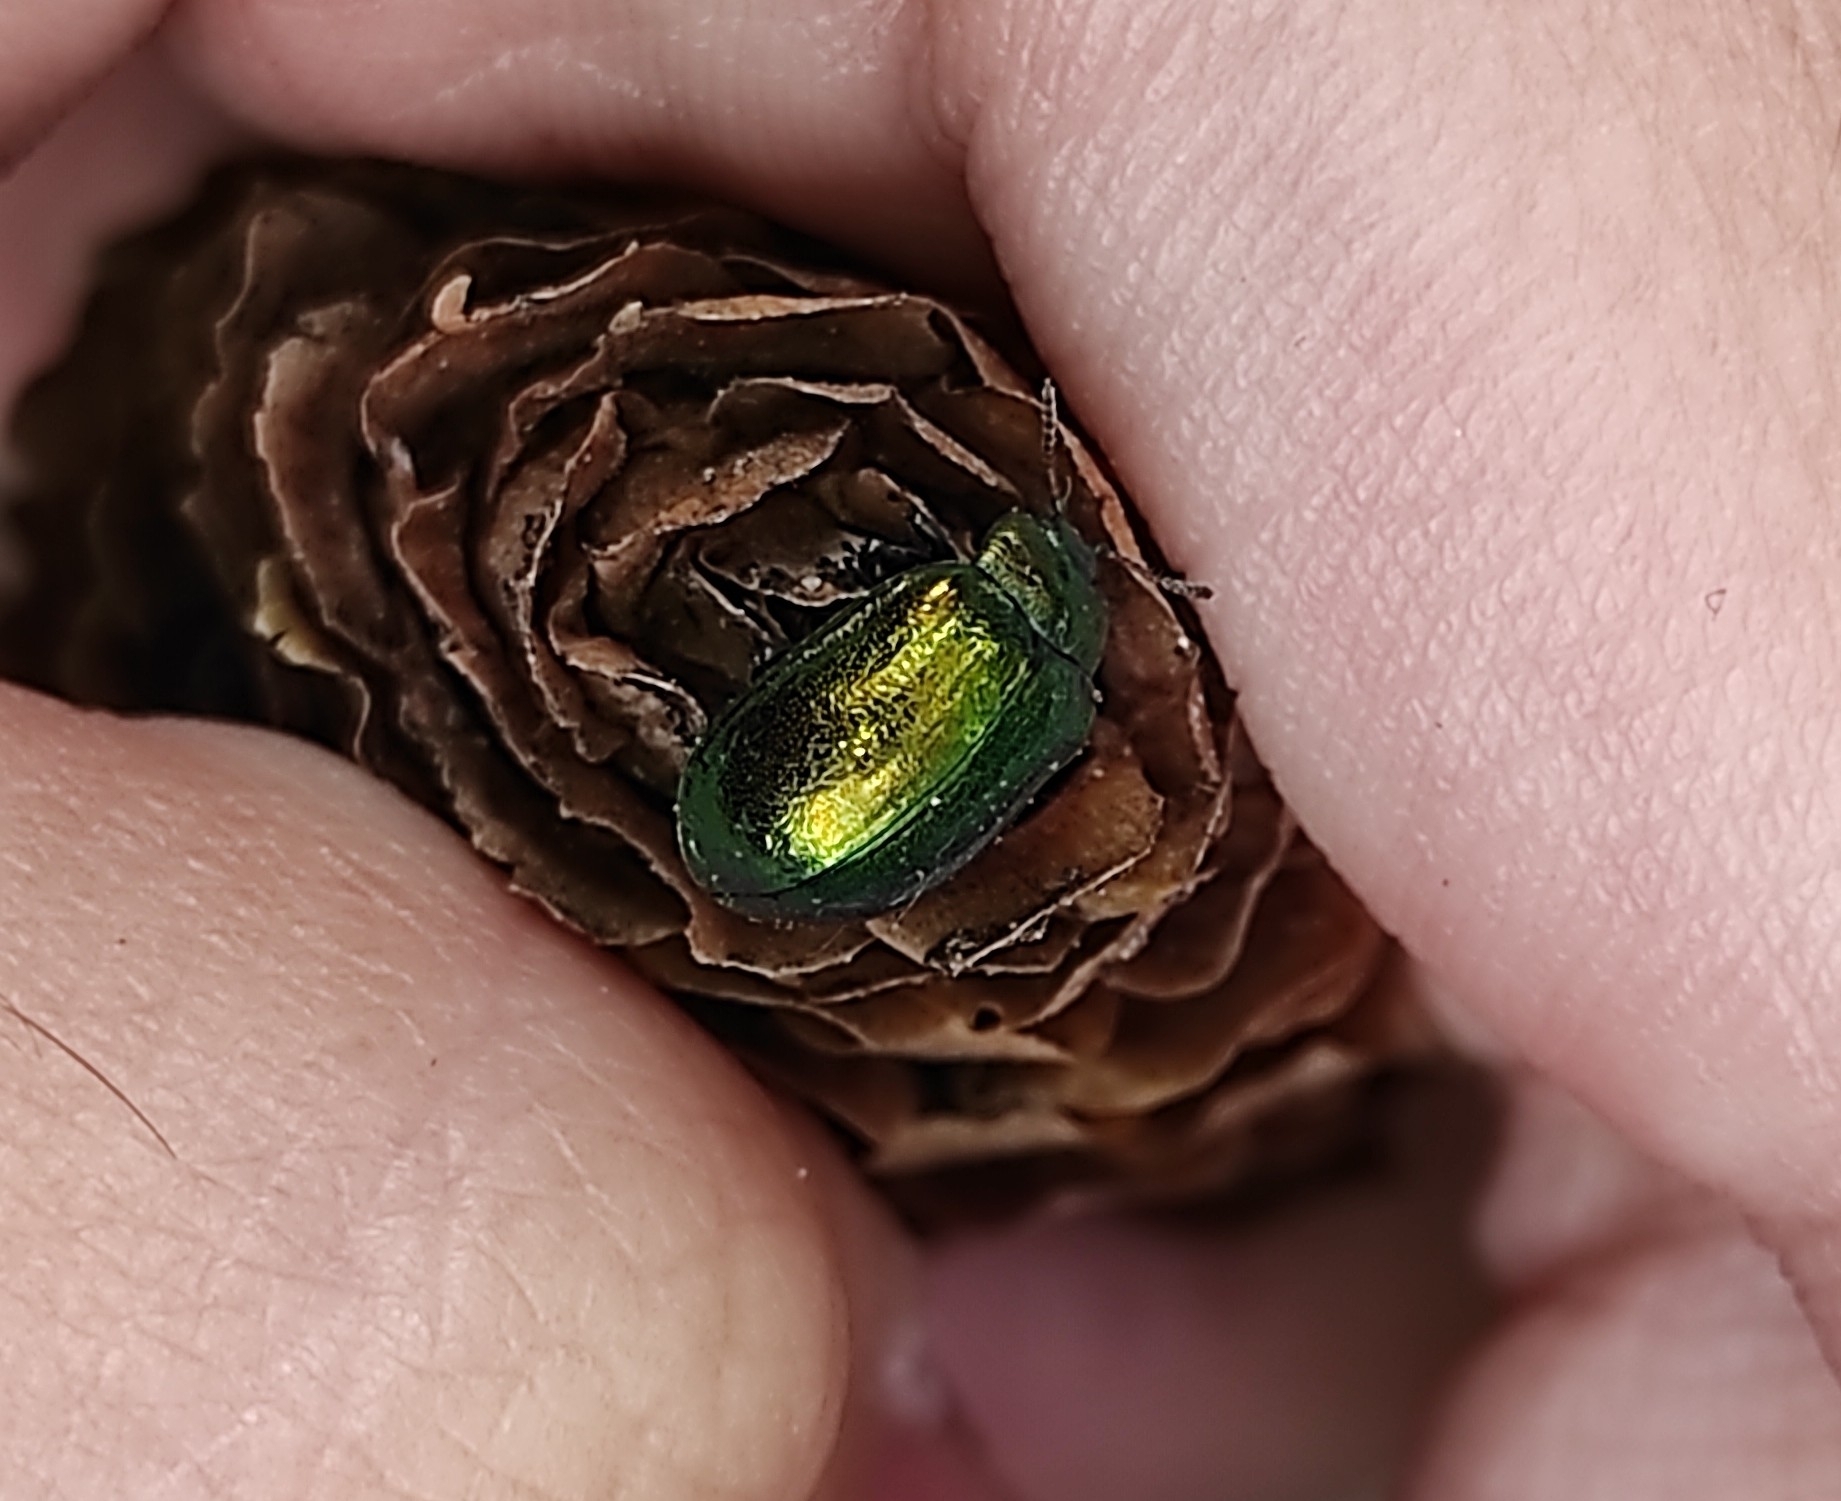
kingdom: Animalia
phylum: Arthropoda
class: Insecta
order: Coleoptera
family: Chrysomelidae
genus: Plagiosterna
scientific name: Plagiosterna aenea
